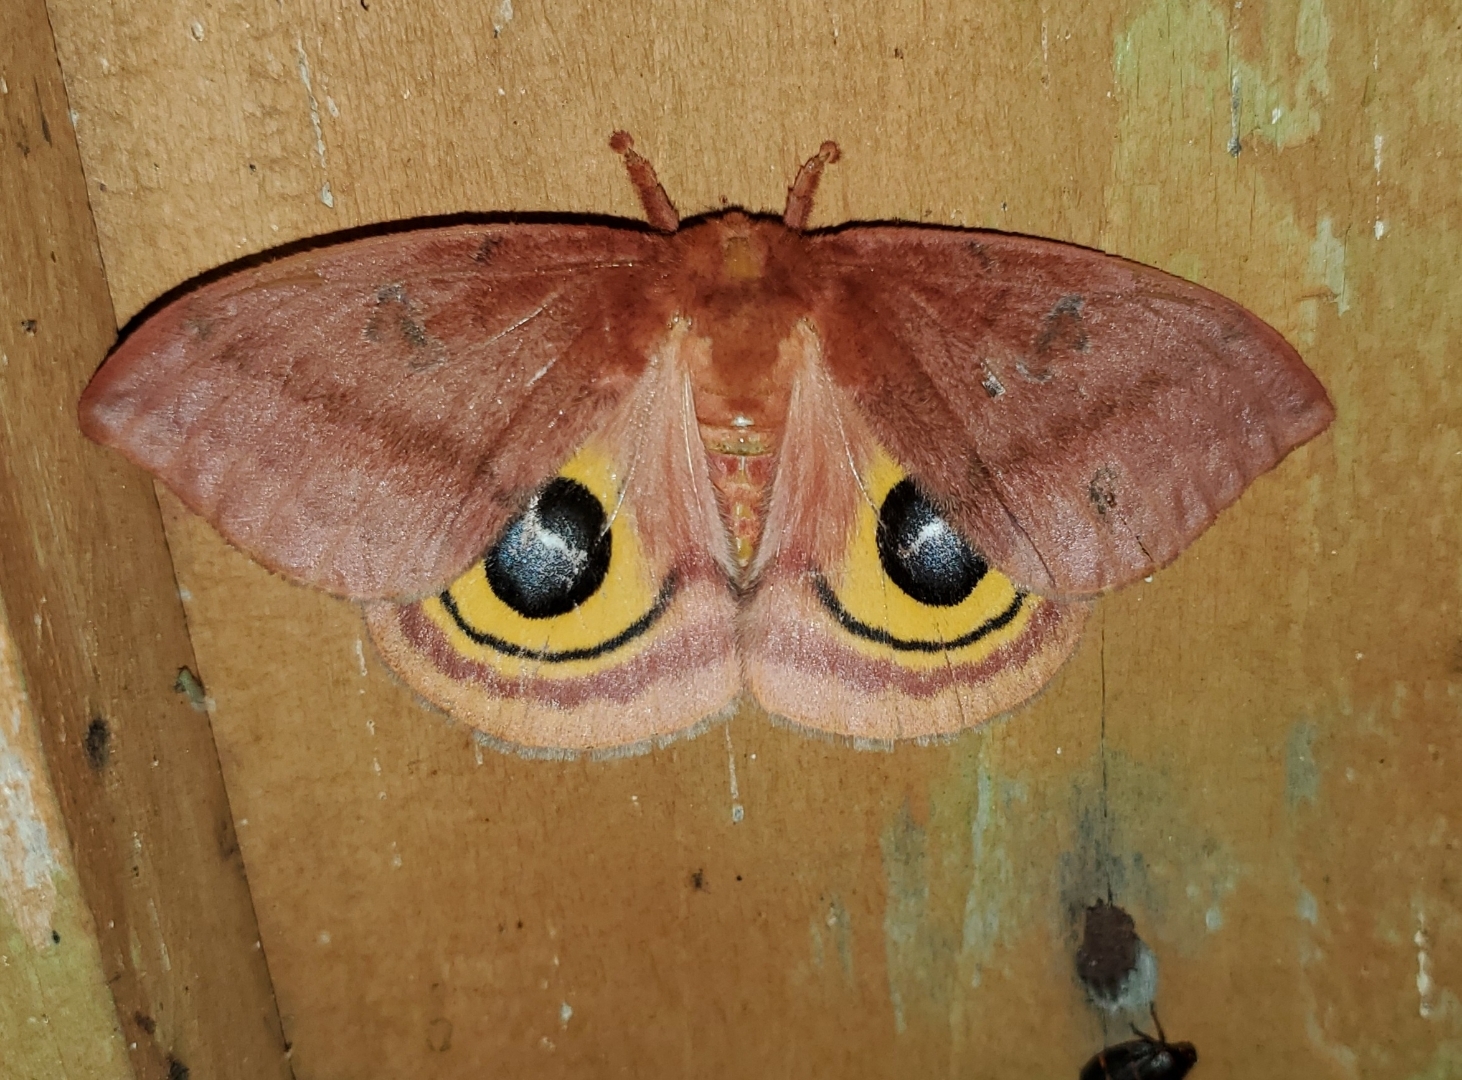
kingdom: Animalia
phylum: Arthropoda
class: Insecta
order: Lepidoptera
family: Saturniidae
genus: Automeris
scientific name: Automeris io
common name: Io moth
